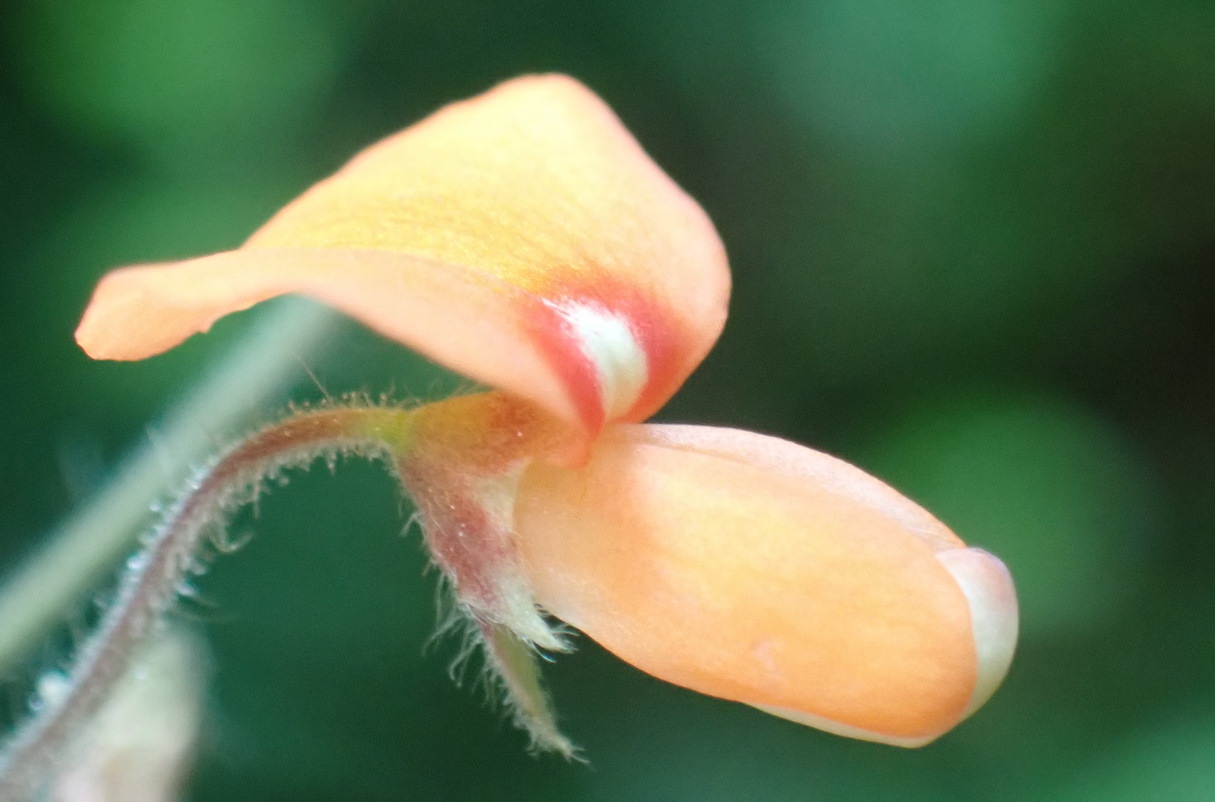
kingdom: Plantae
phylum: Tracheophyta
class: Magnoliopsida
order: Fabales
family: Fabaceae
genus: Hylodesmum
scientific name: Hylodesmum repandum
